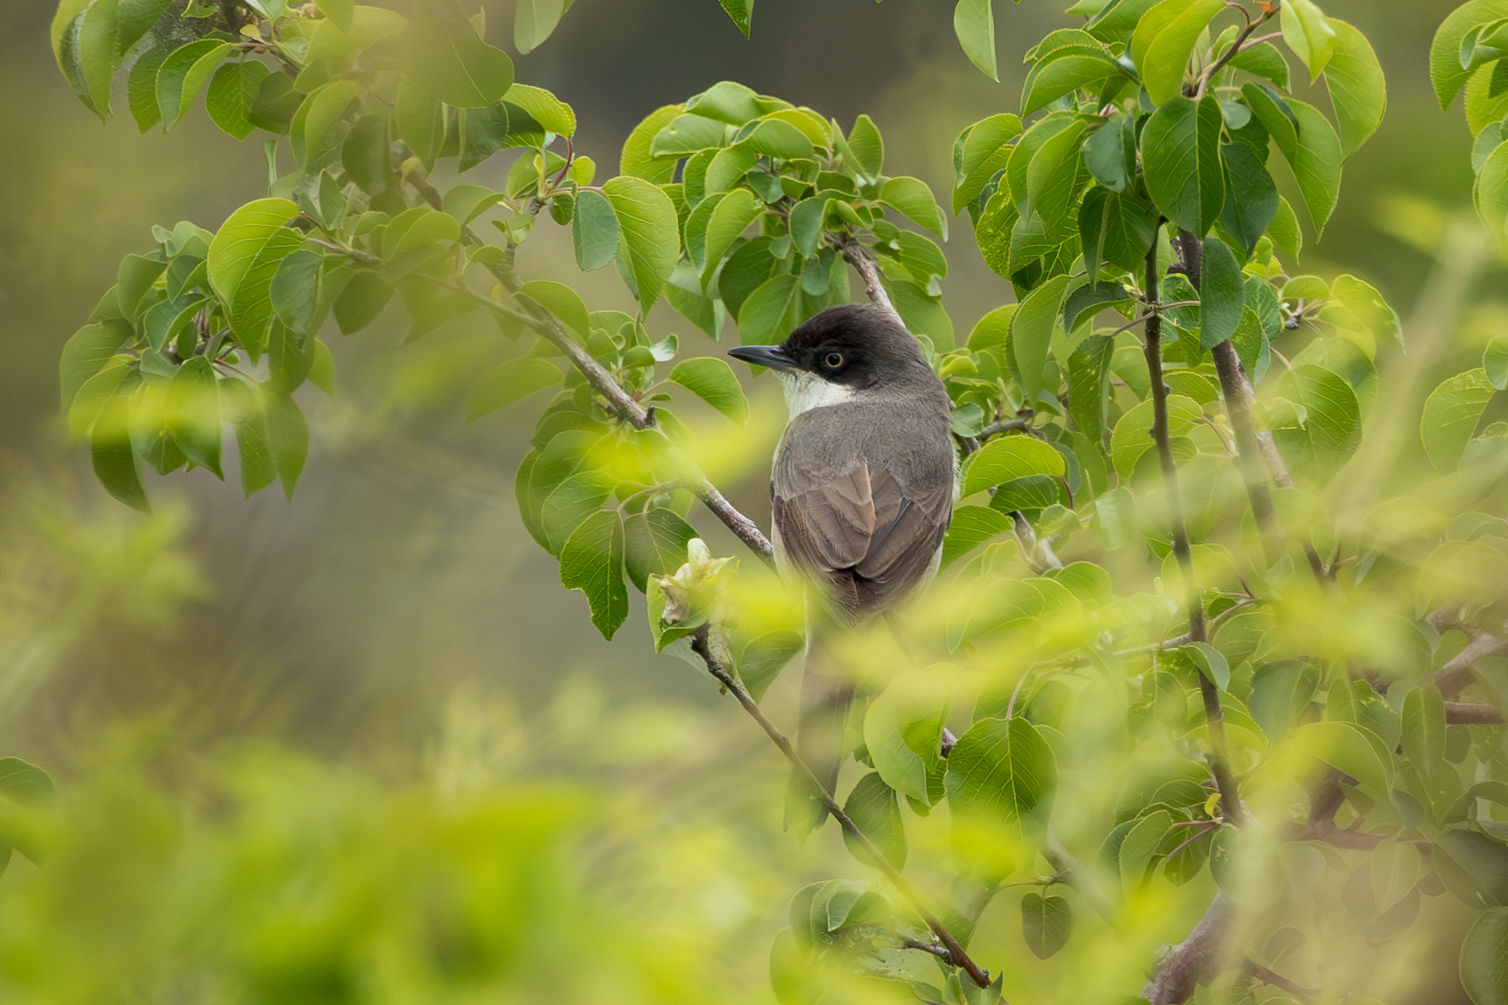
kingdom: Animalia
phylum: Chordata
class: Aves
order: Passeriformes
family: Sylviidae
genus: Sylvia
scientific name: Sylvia hortensis
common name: Orphean warbler
